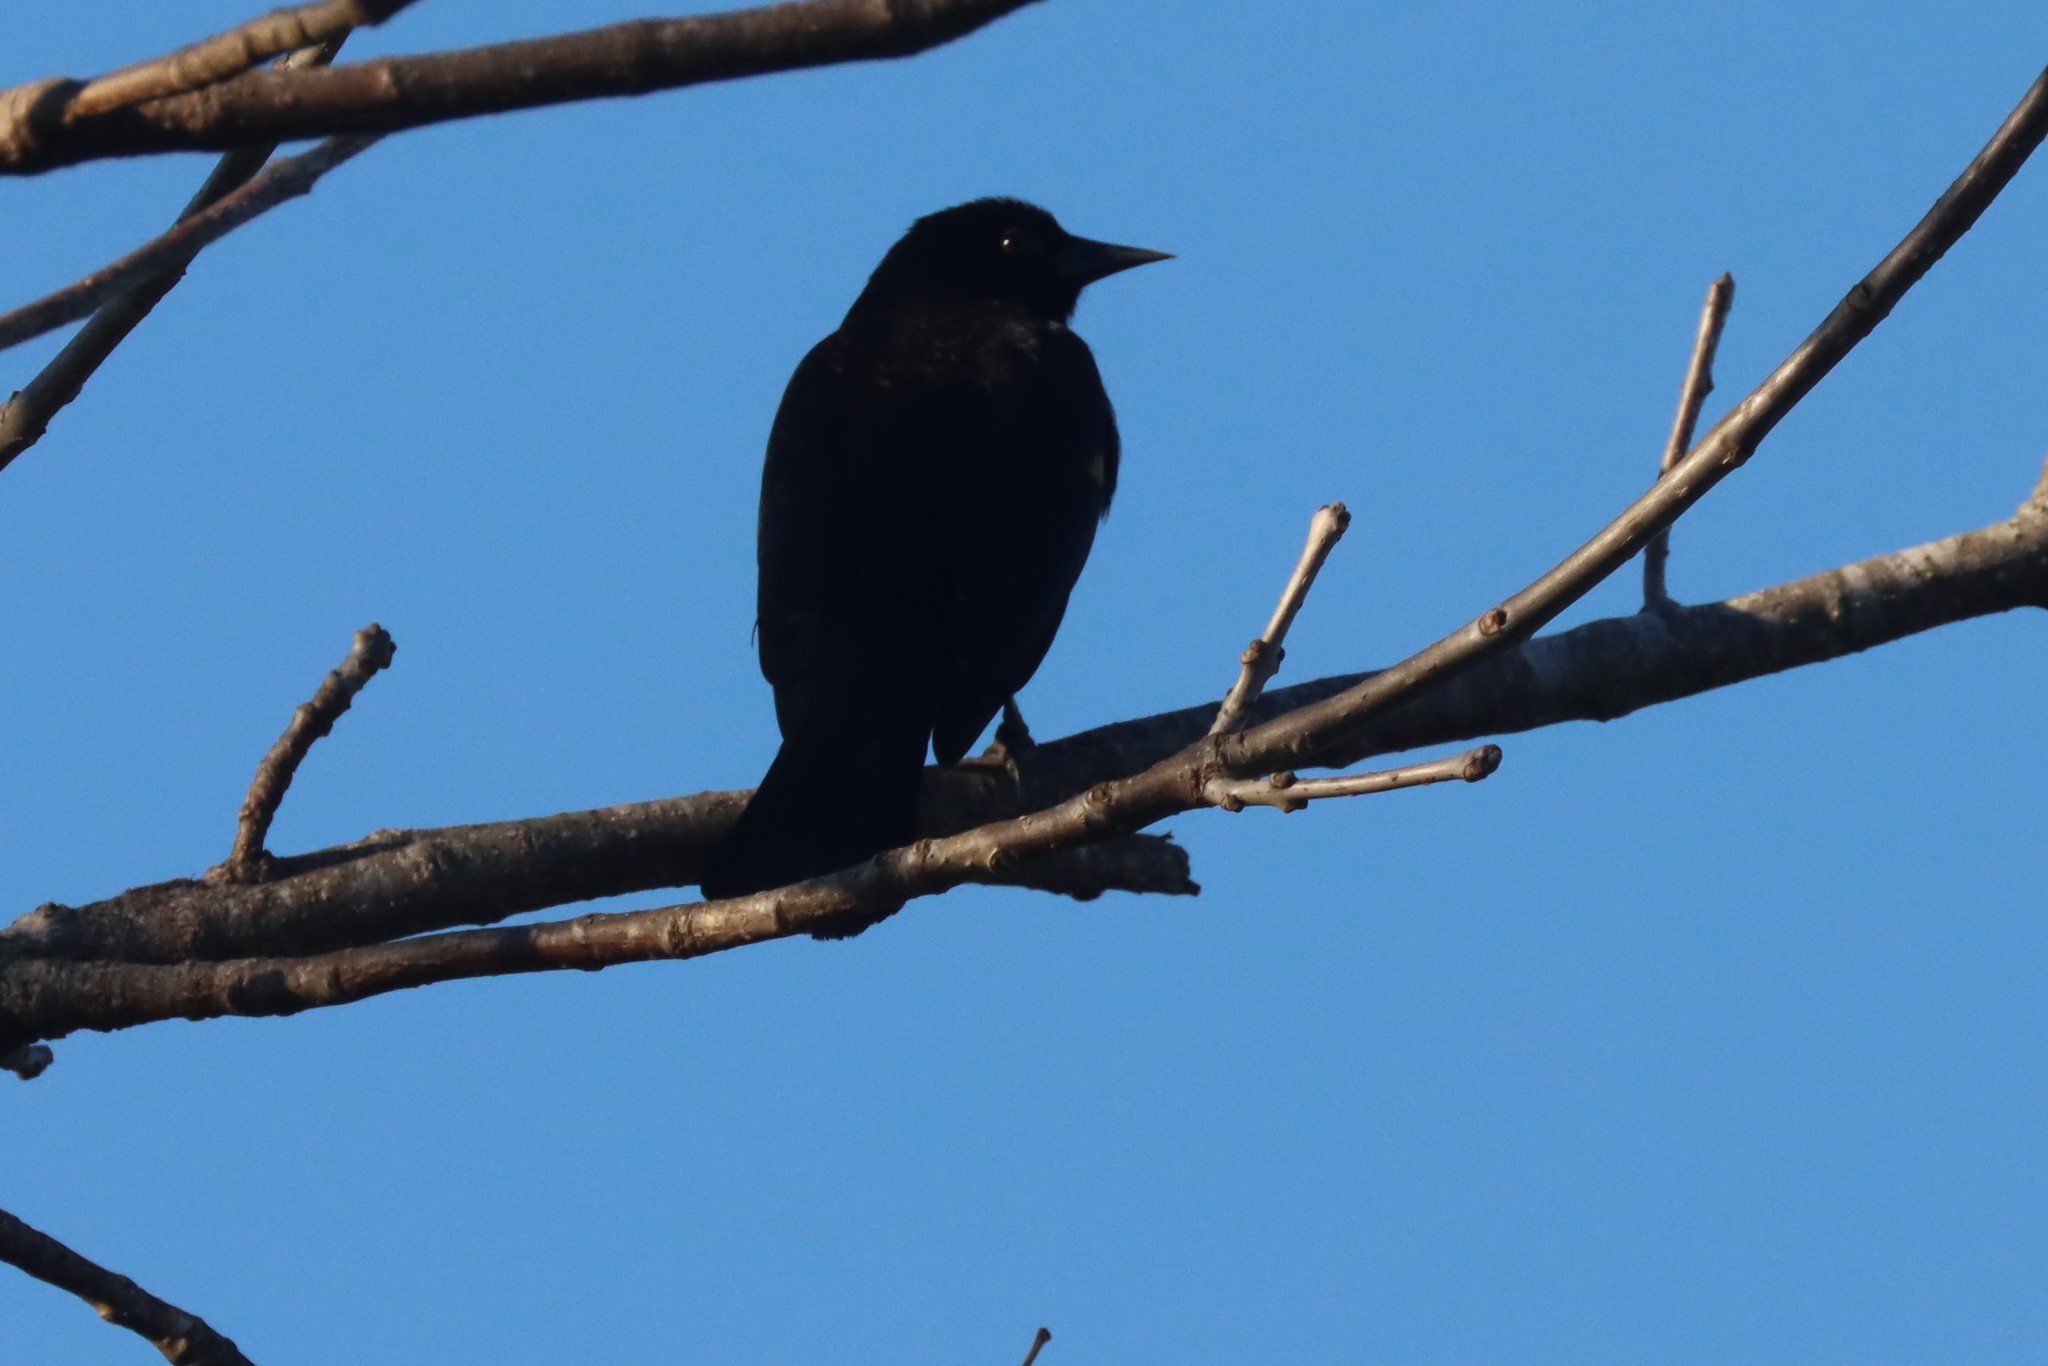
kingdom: Animalia
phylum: Chordata
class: Aves
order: Passeriformes
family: Icteridae
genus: Agelaius
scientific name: Agelaius phoeniceus
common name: Red-winged blackbird
